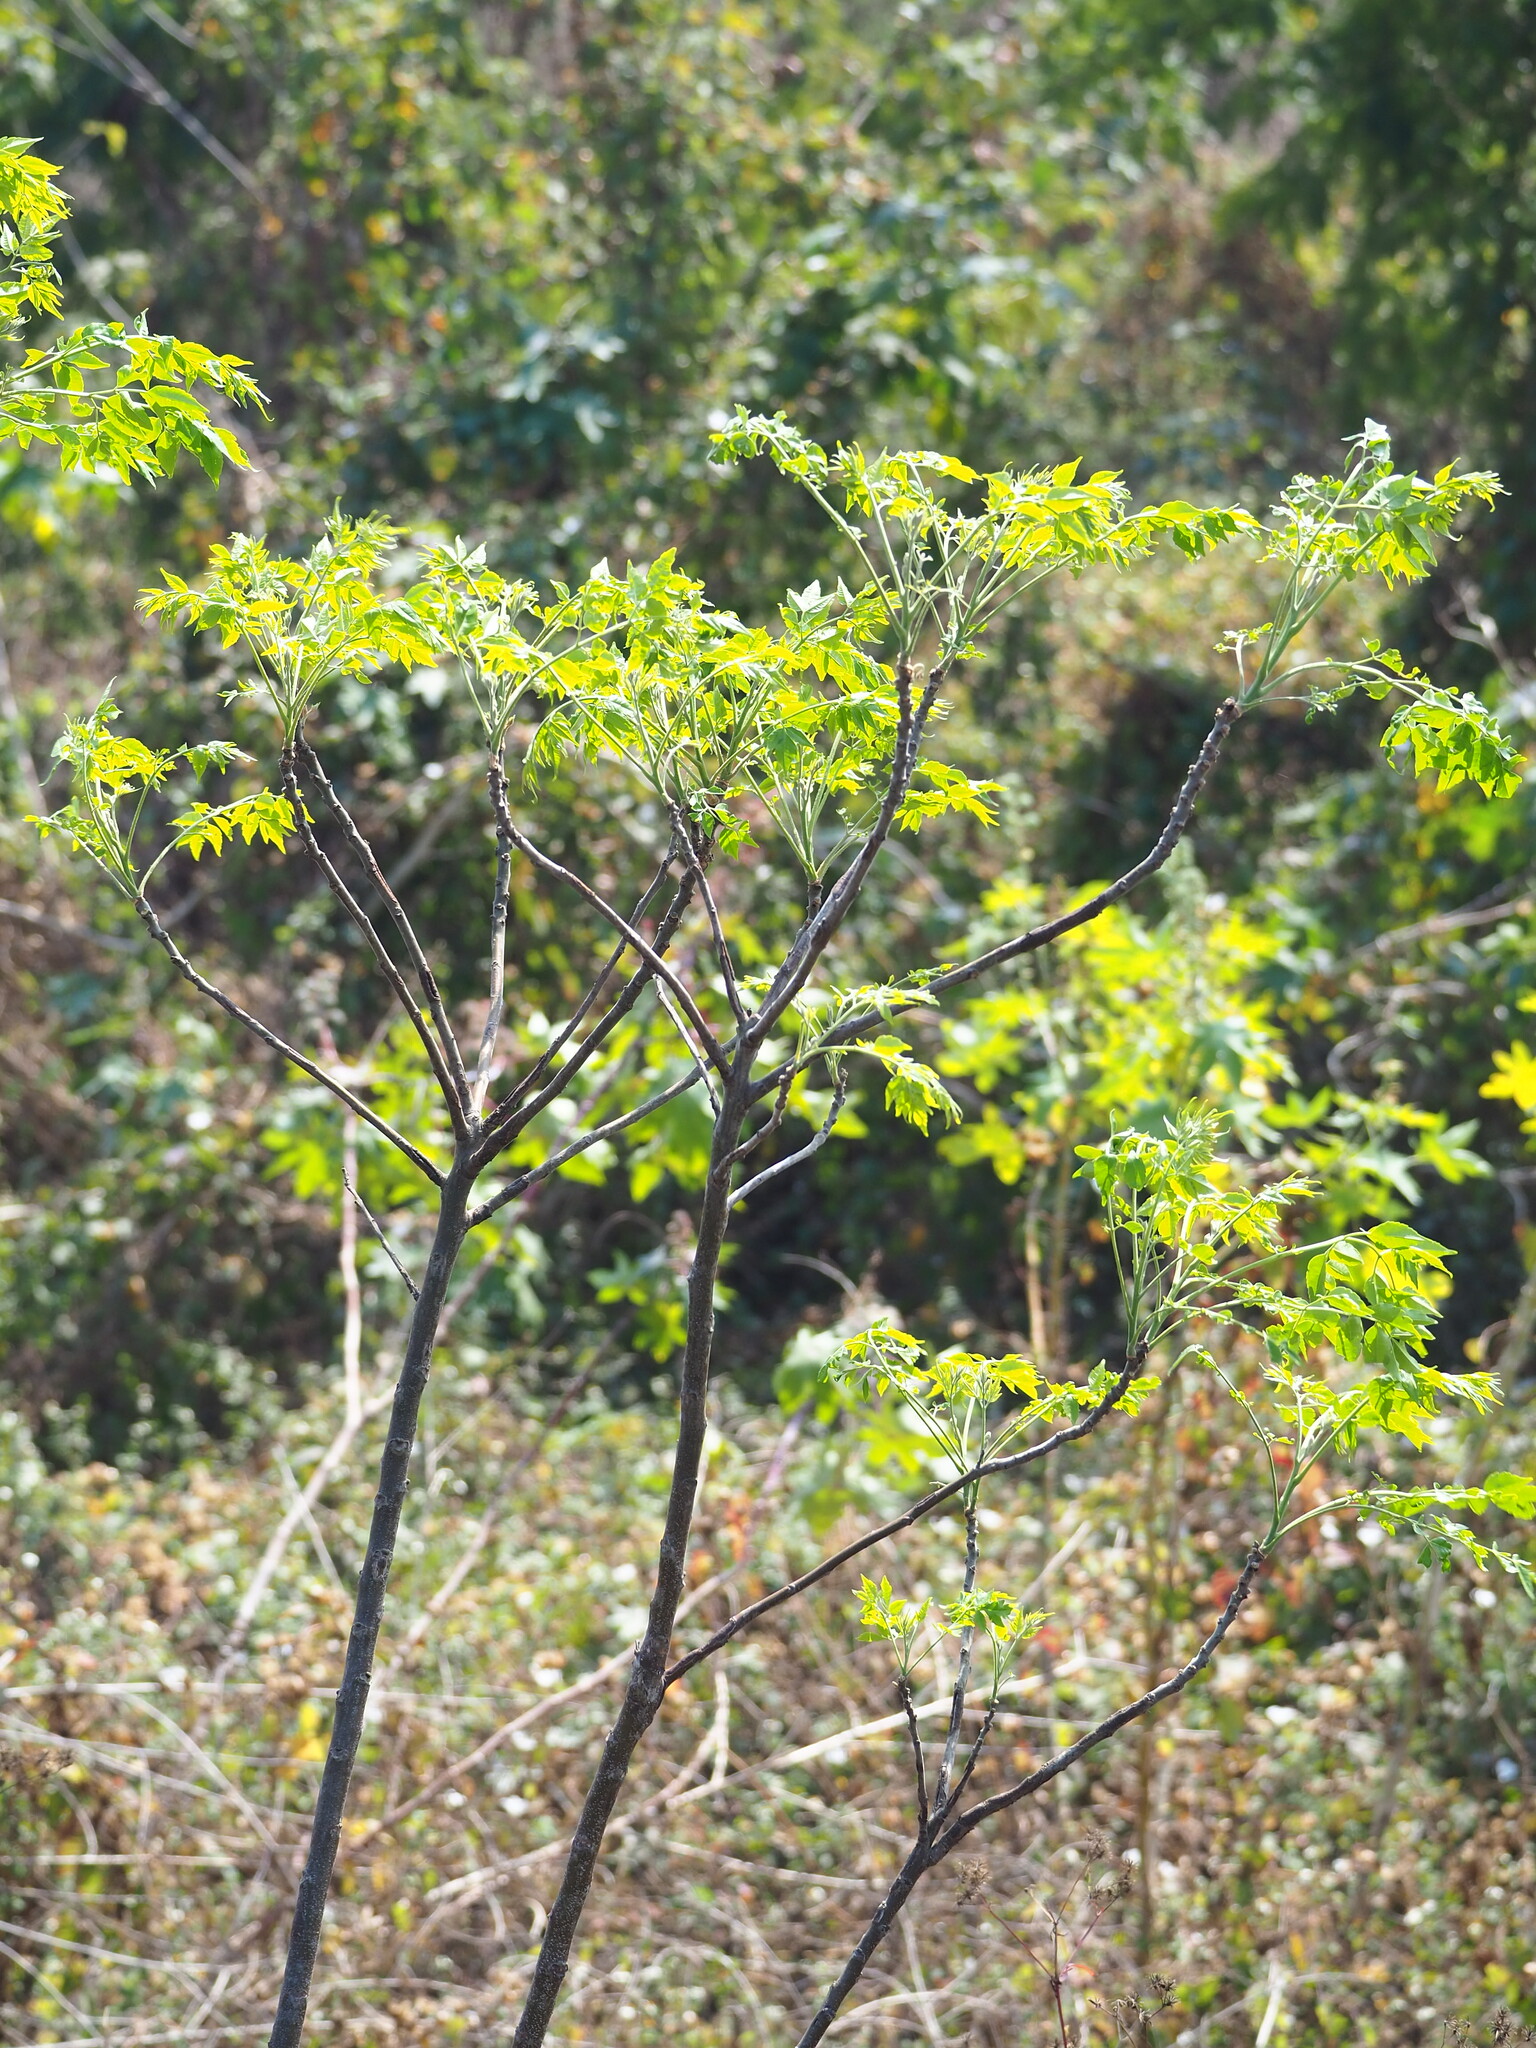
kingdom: Plantae
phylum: Tracheophyta
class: Magnoliopsida
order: Sapindales
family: Meliaceae
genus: Melia
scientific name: Melia azedarach
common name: Chinaberrytree
